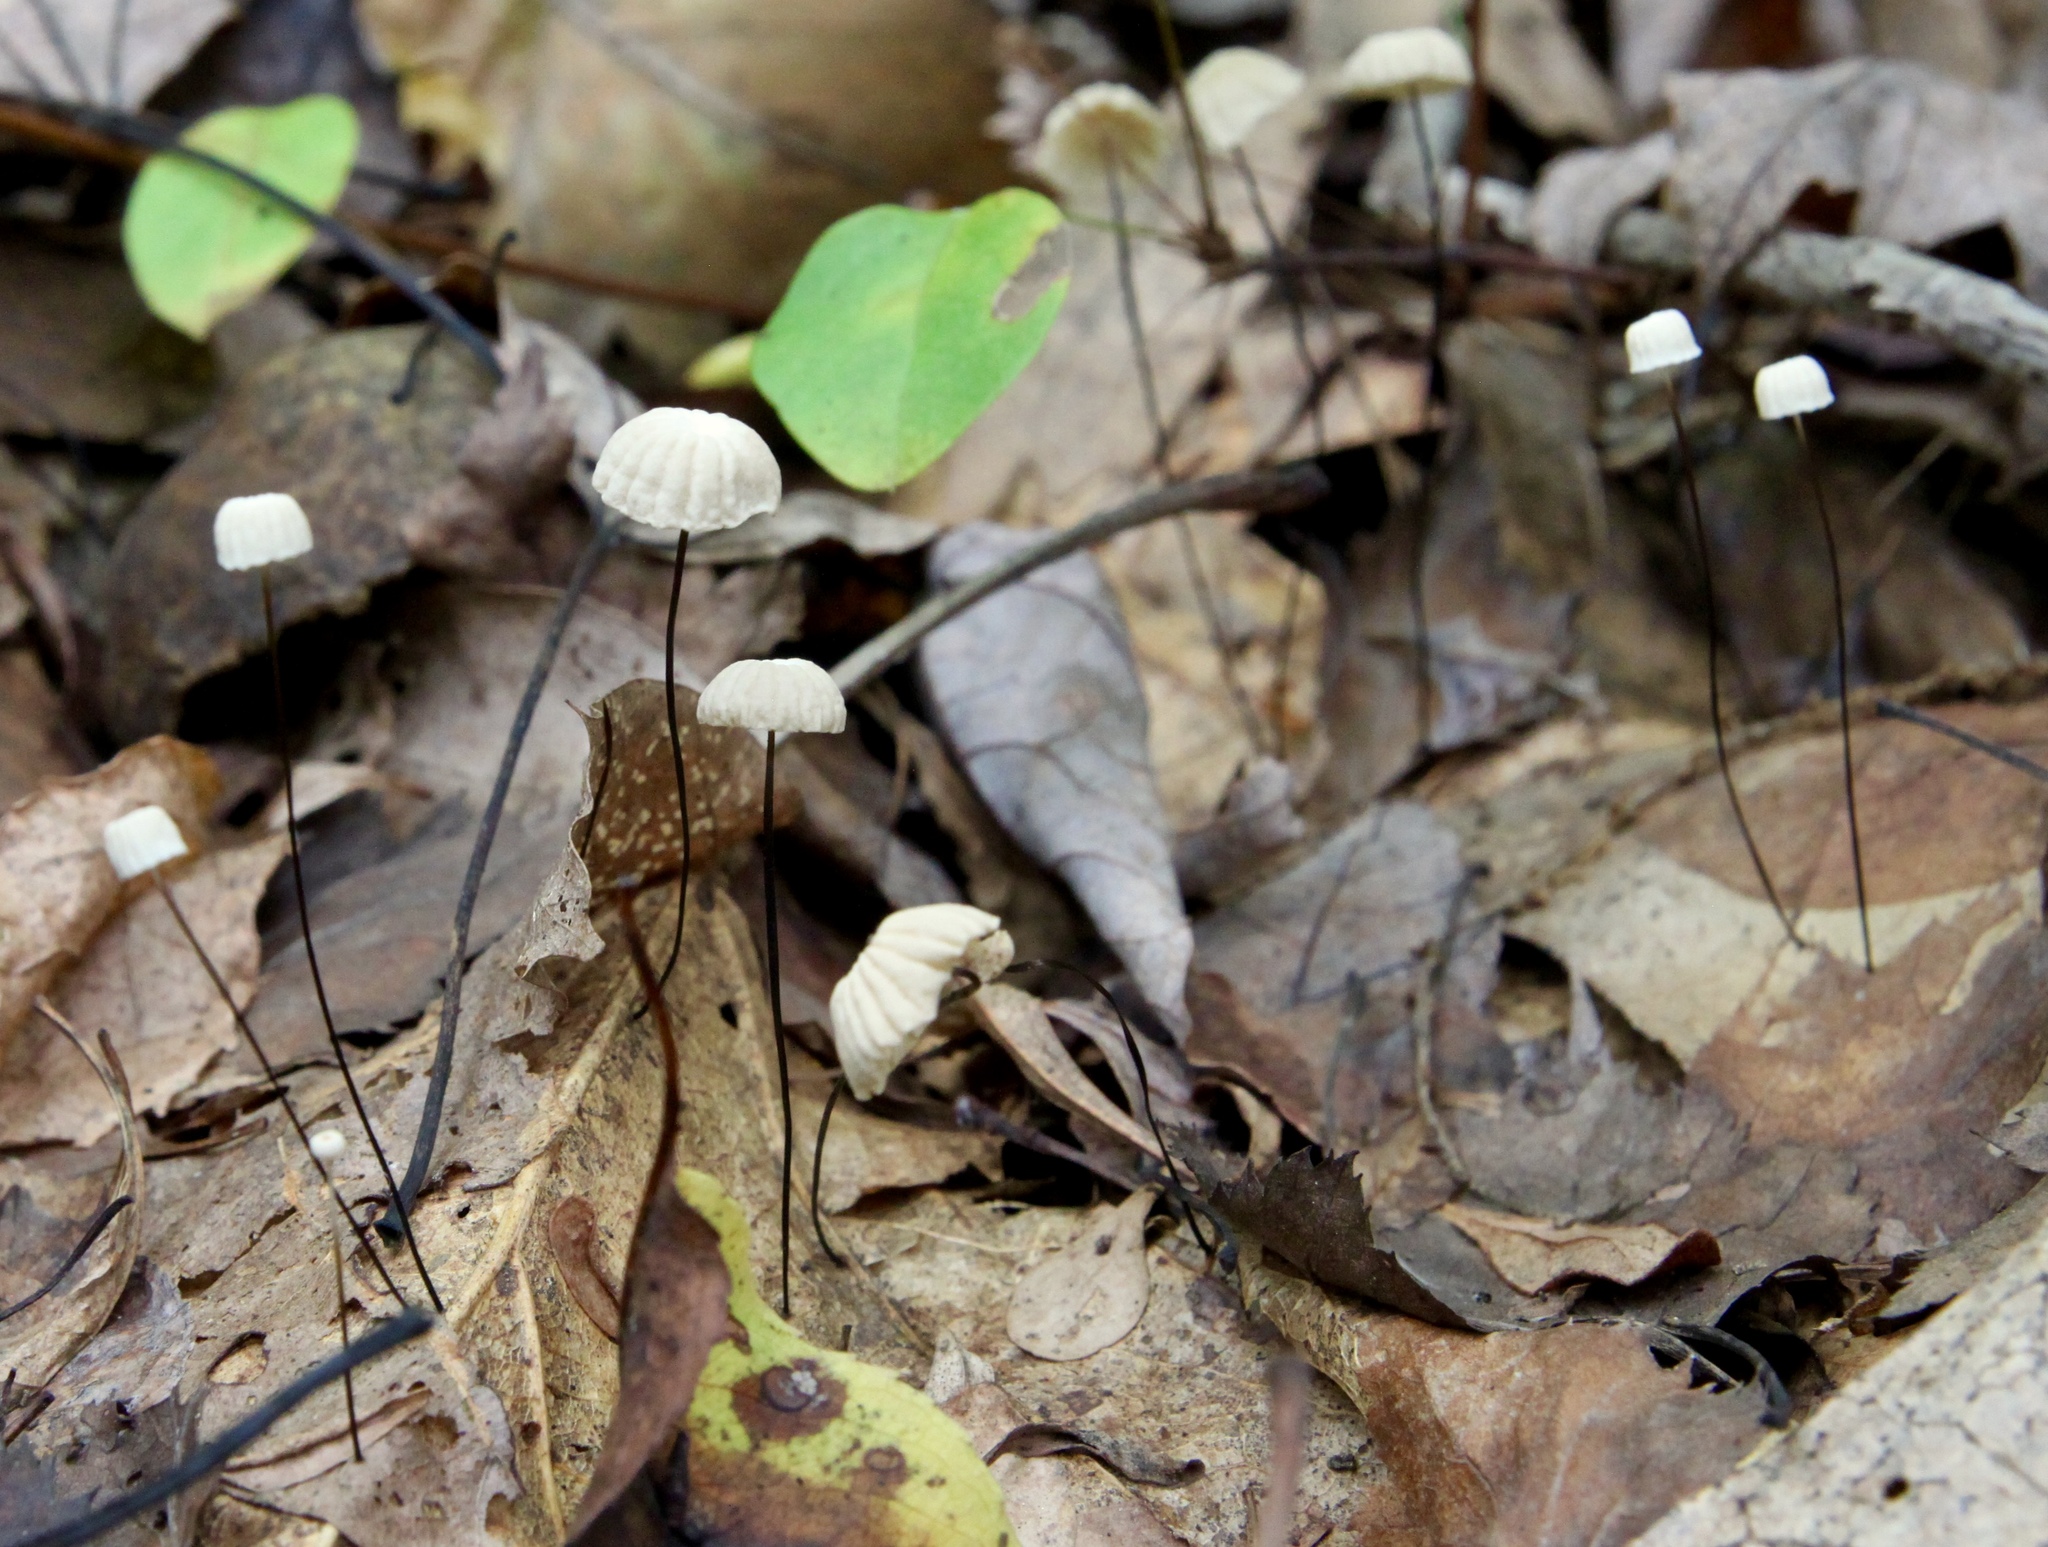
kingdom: Fungi
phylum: Basidiomycota
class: Agaricomycetes
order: Agaricales
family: Marasmiaceae
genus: Marasmius
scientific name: Marasmius capillaris
